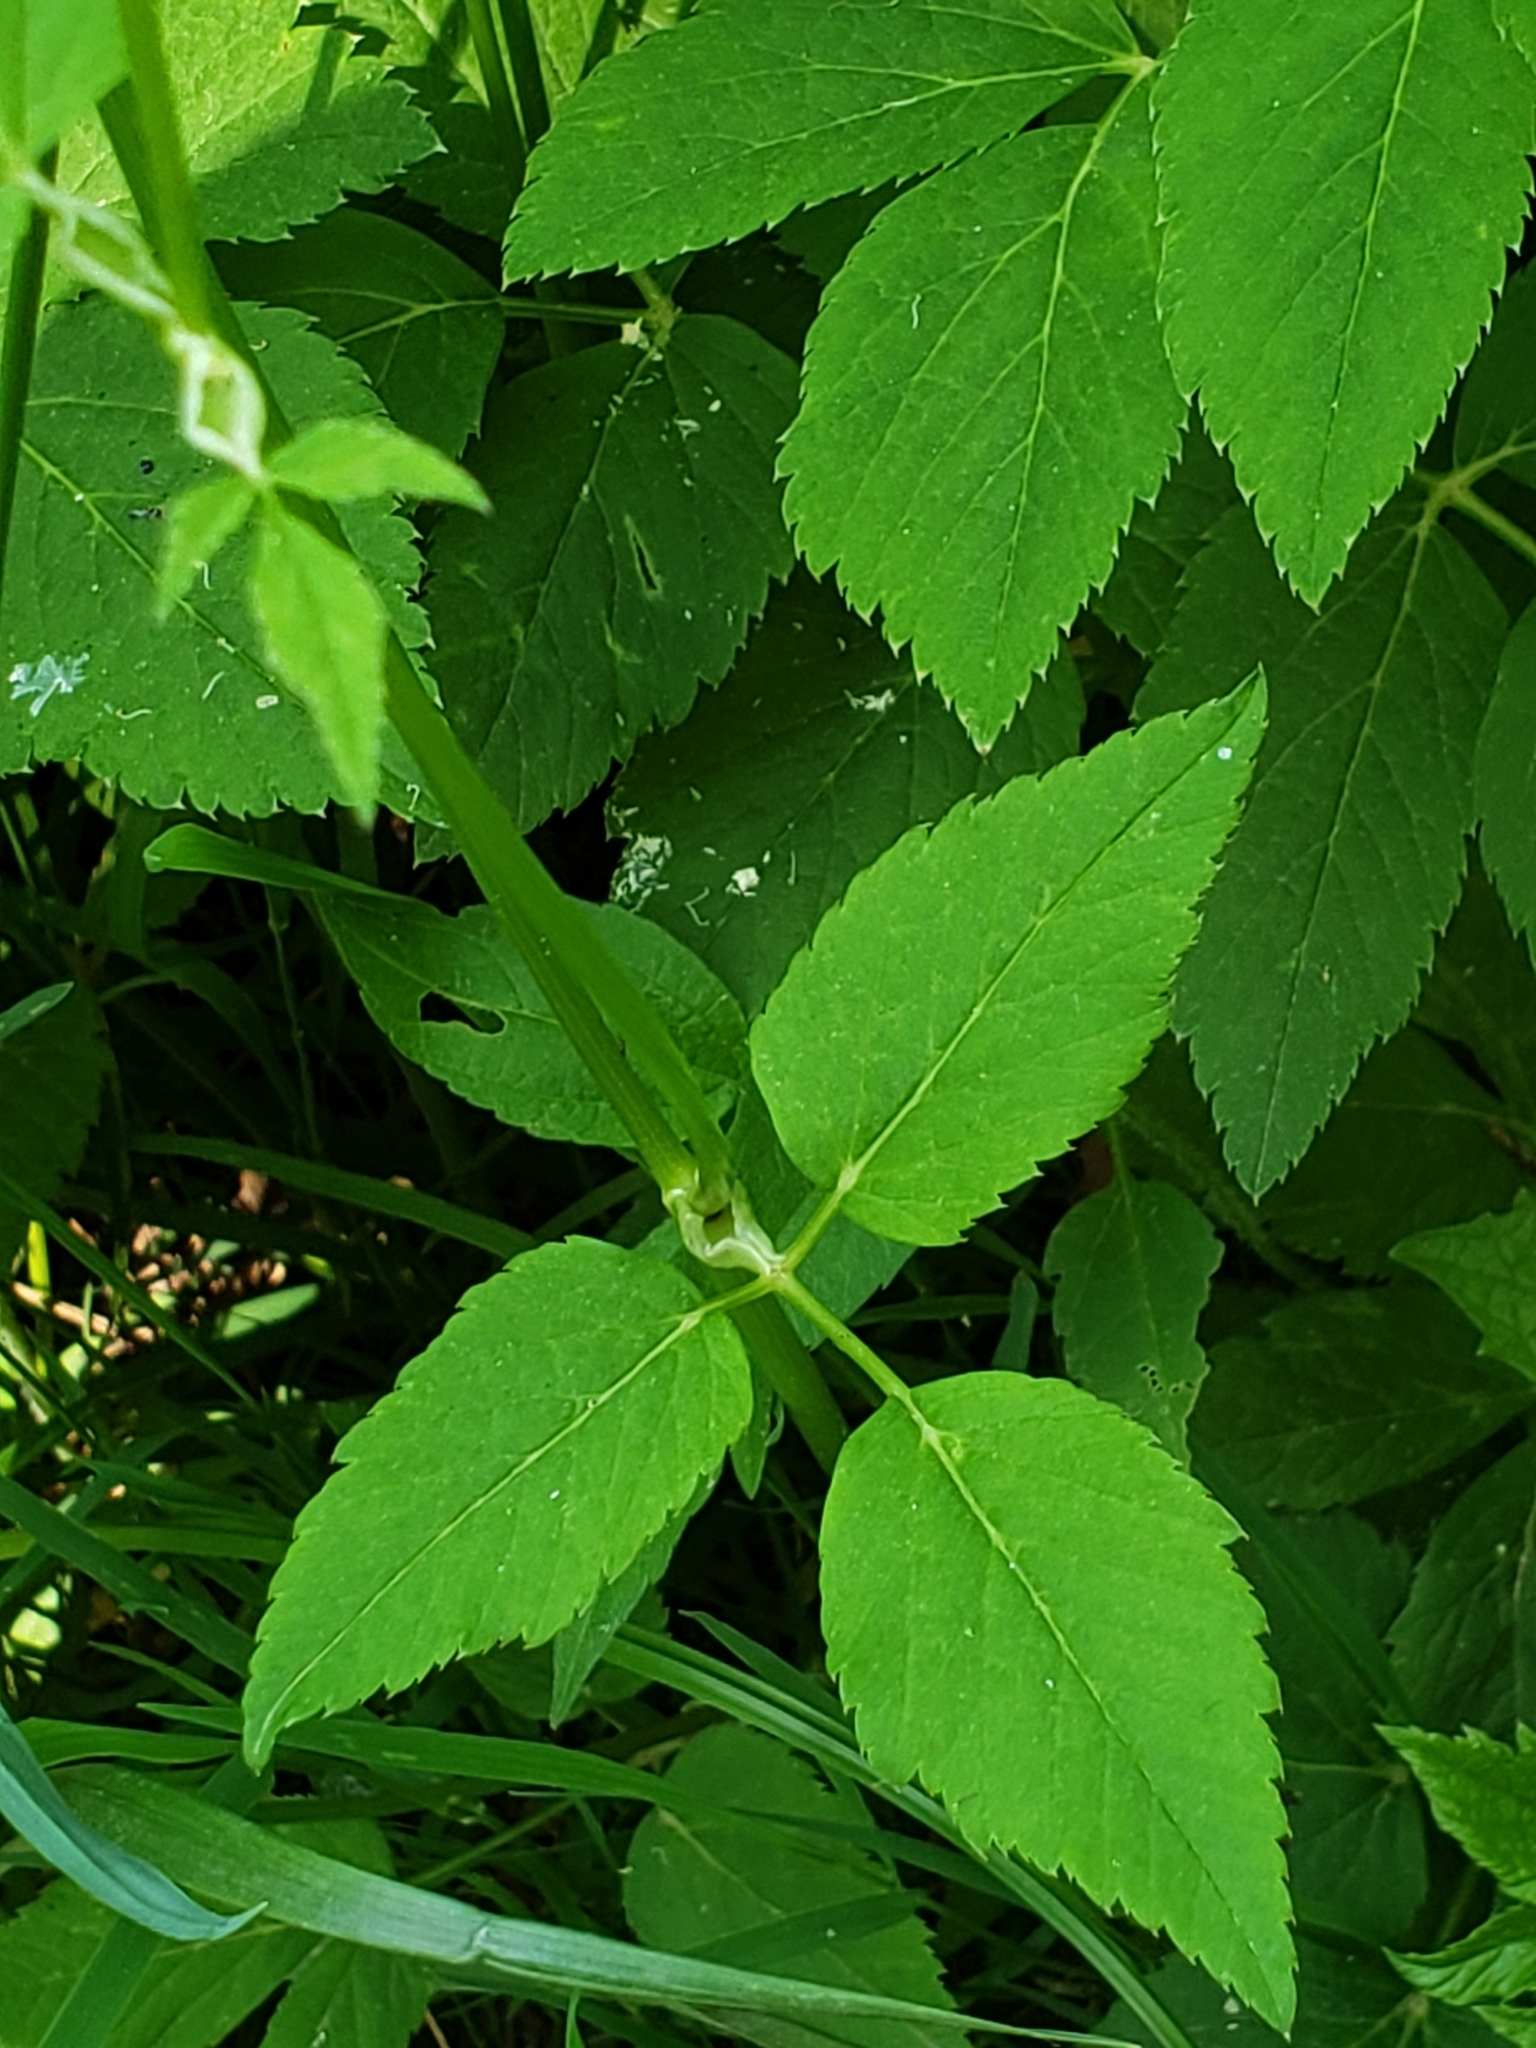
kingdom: Plantae
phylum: Tracheophyta
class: Magnoliopsida
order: Apiales
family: Apiaceae
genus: Aegopodium
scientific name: Aegopodium podagraria
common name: Ground-elder
